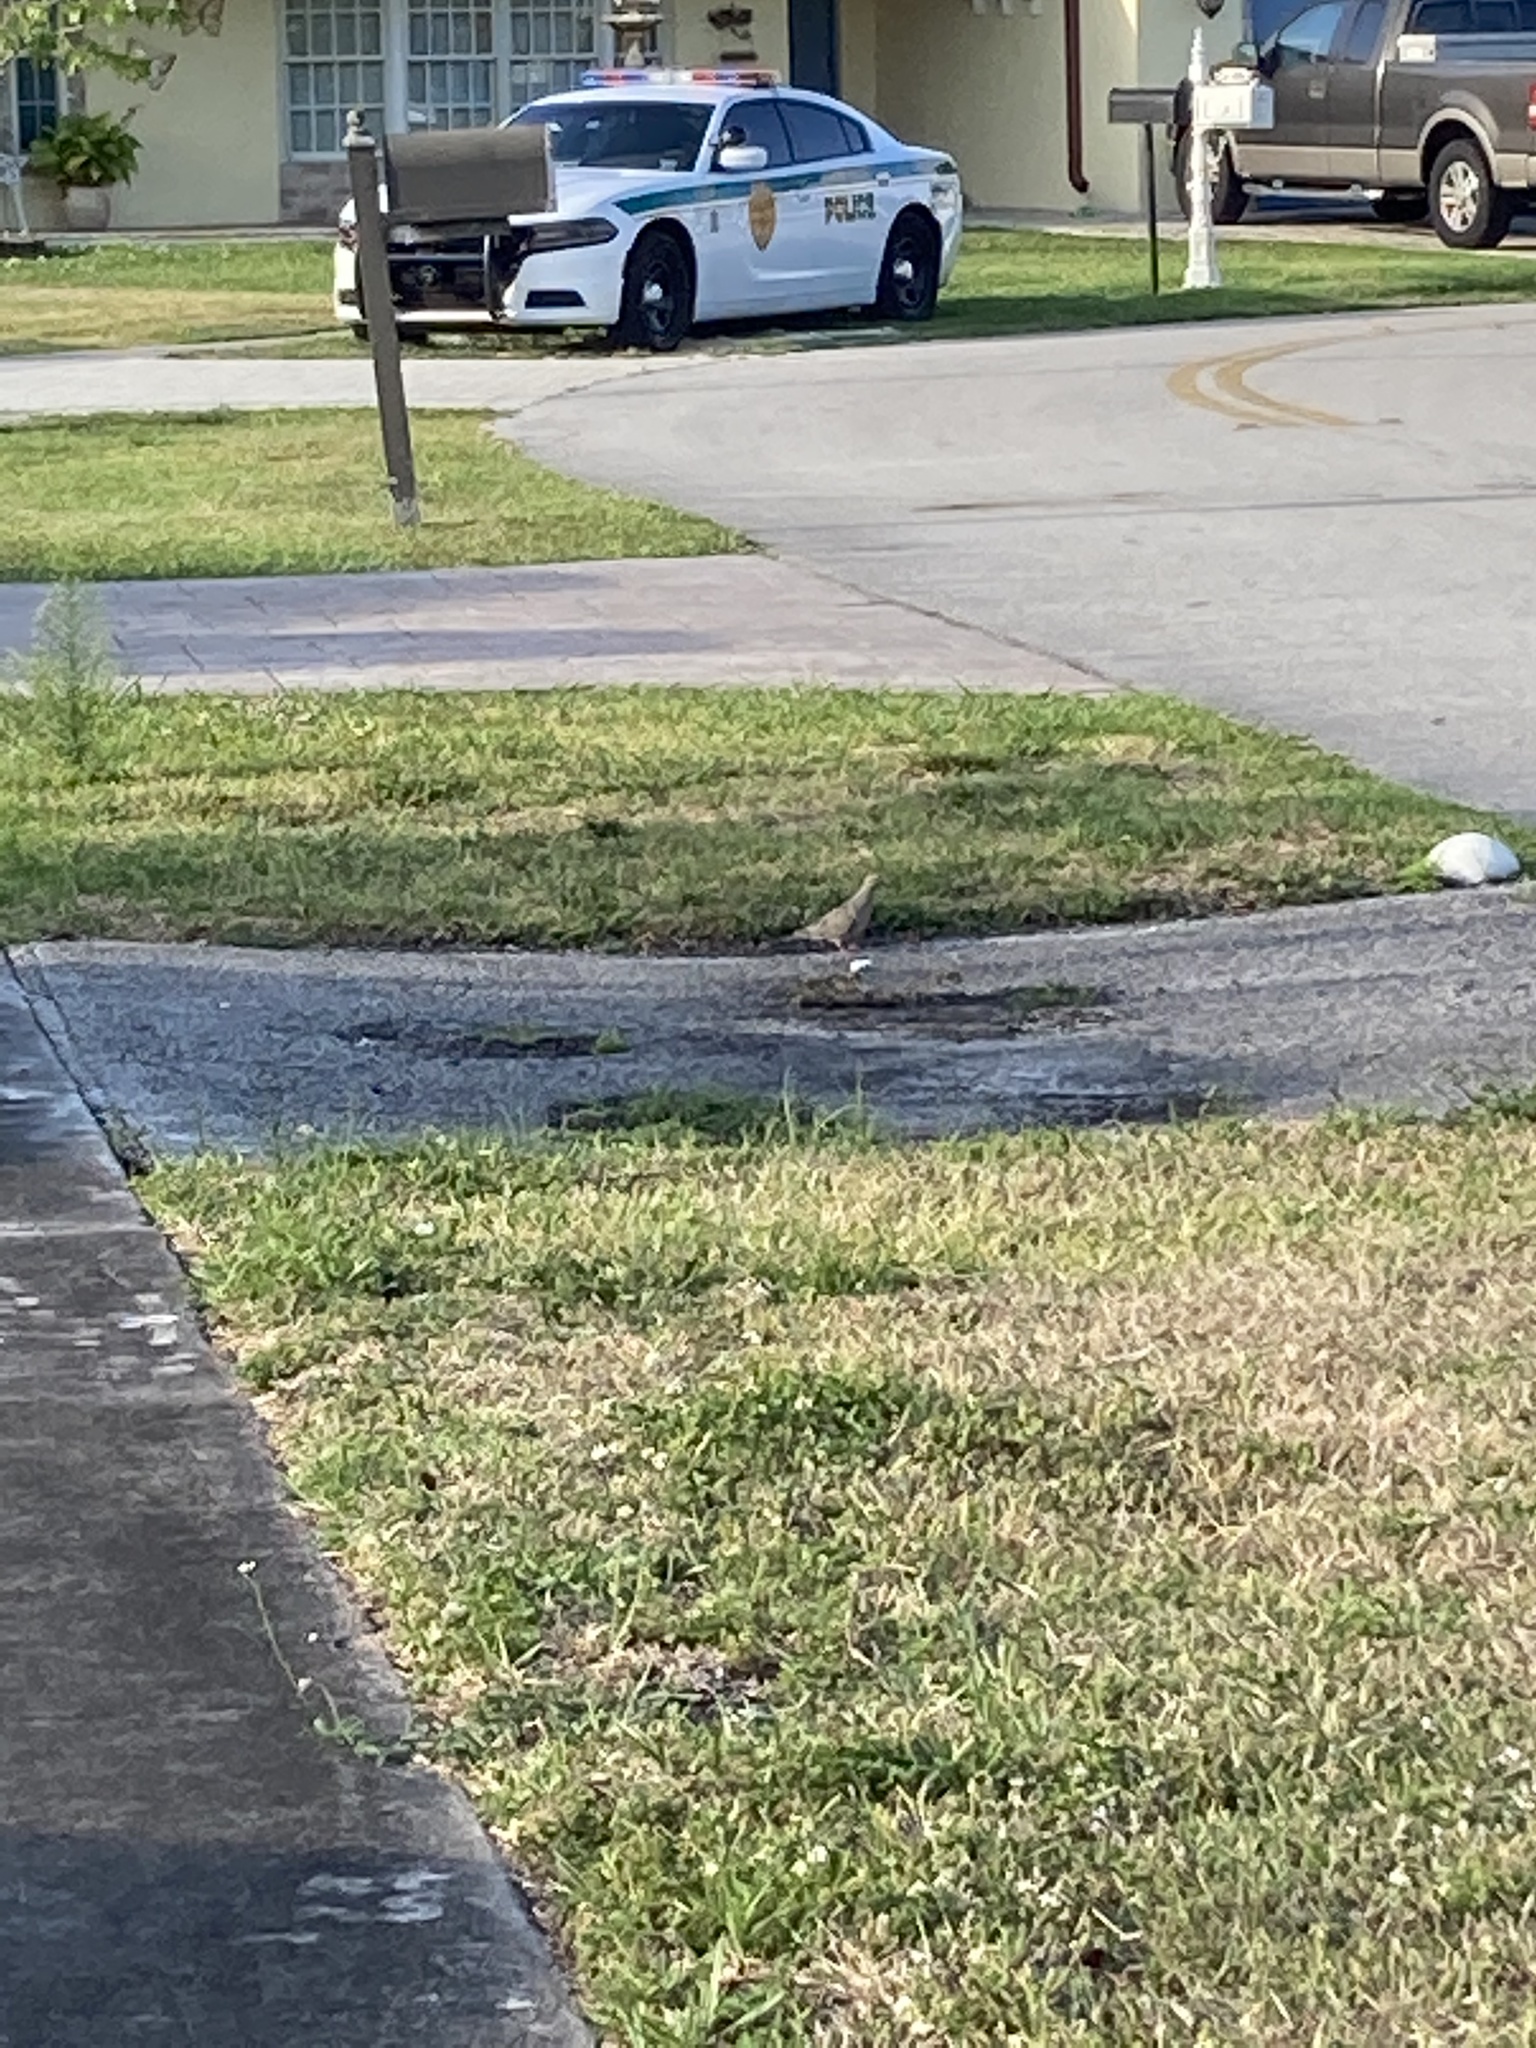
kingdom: Animalia
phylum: Chordata
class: Aves
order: Columbiformes
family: Columbidae
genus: Zenaida
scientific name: Zenaida macroura
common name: Mourning dove
